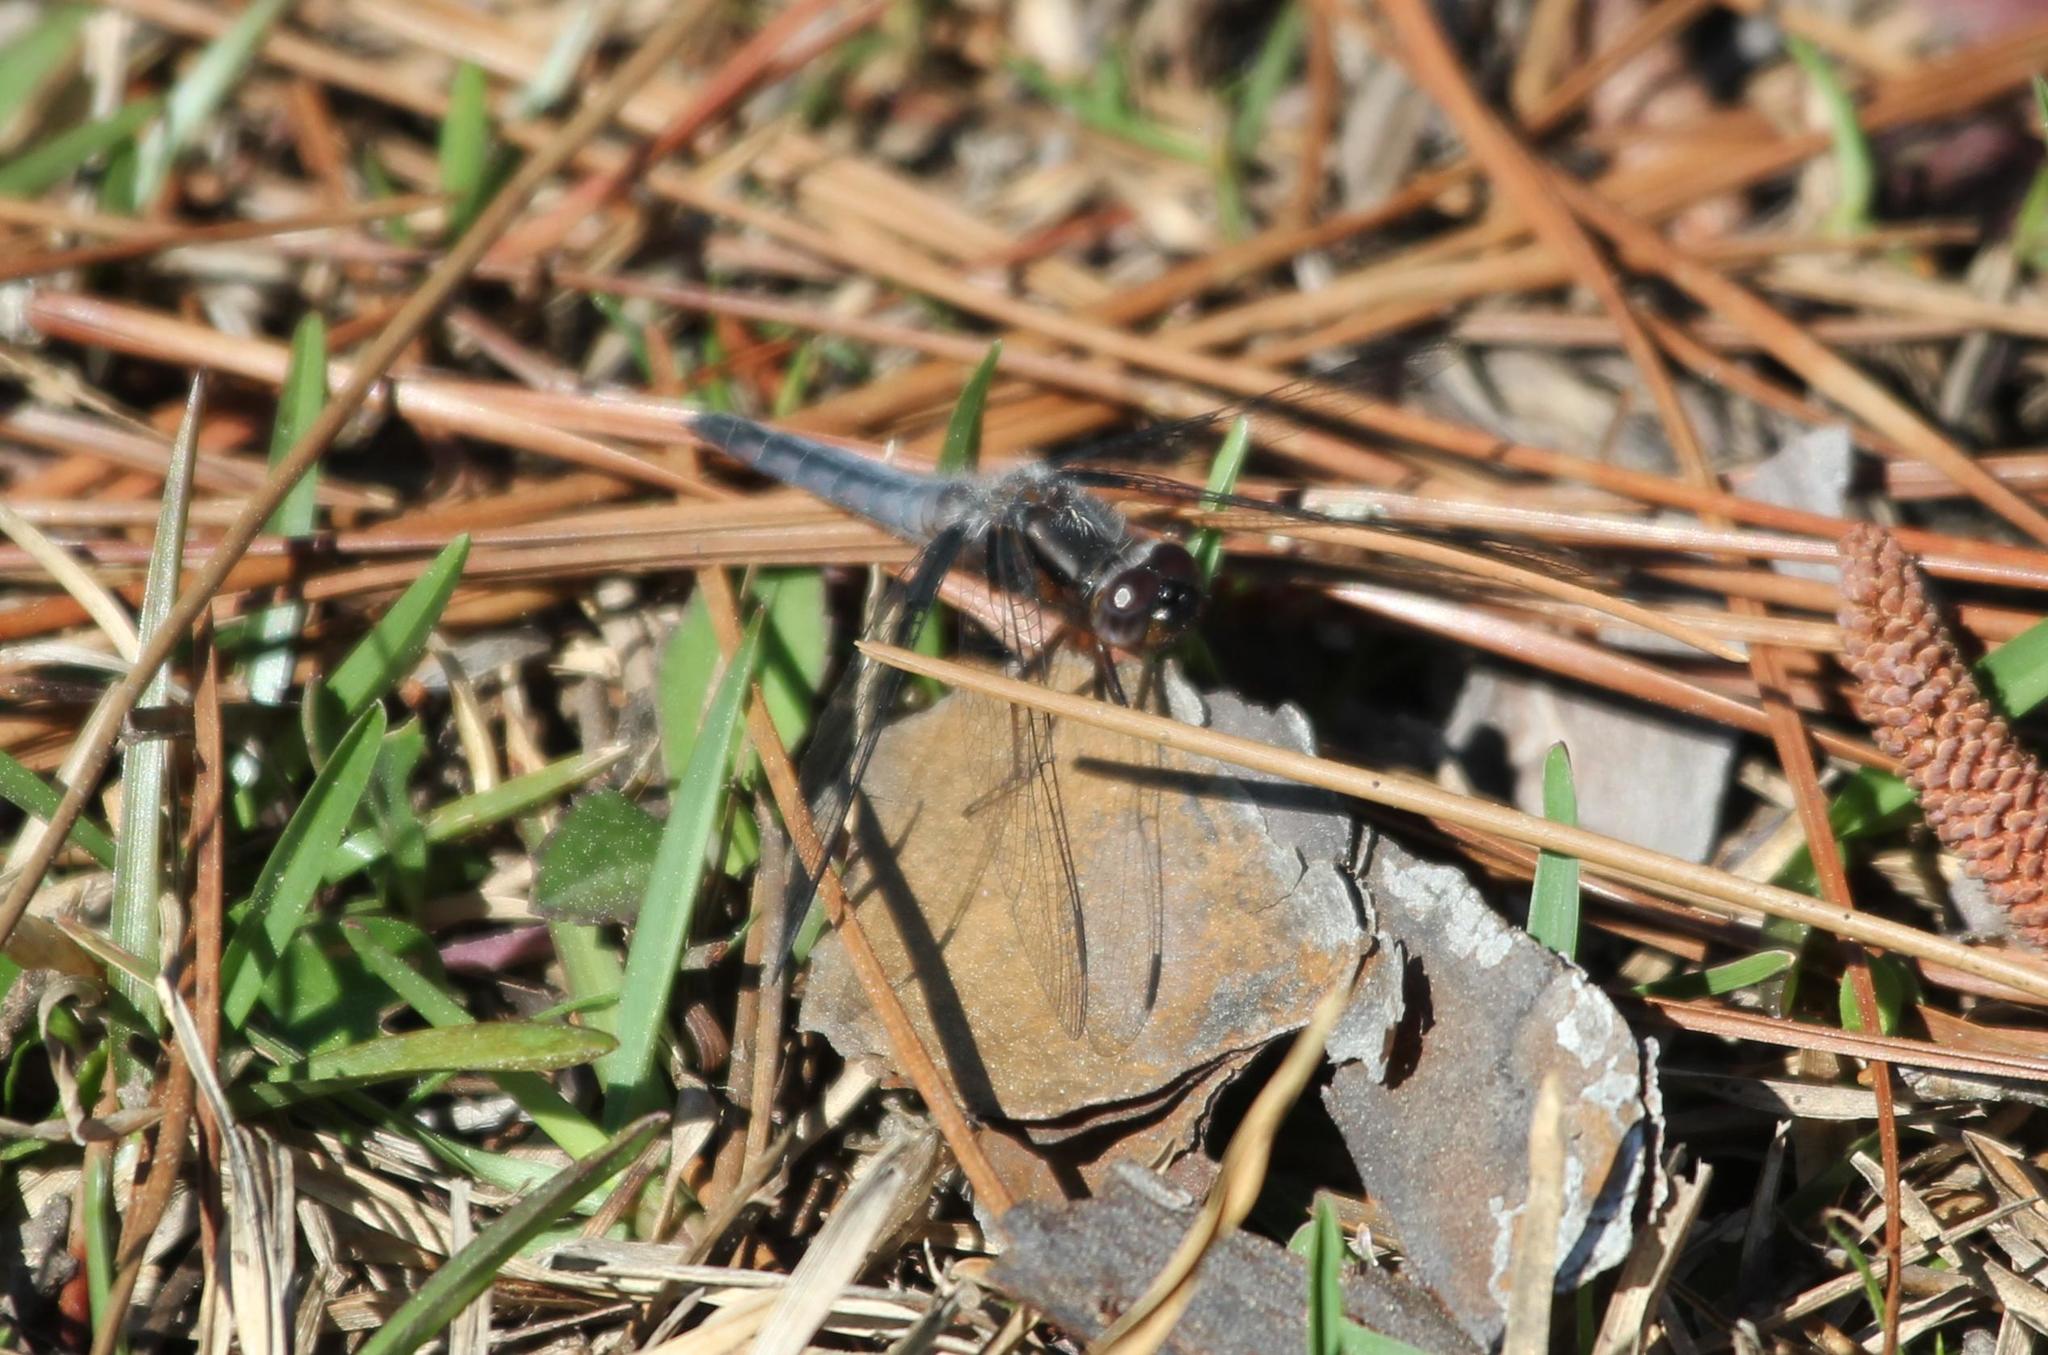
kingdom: Animalia
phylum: Arthropoda
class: Insecta
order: Odonata
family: Libellulidae
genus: Ladona
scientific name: Ladona deplanata
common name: Blue corporal
